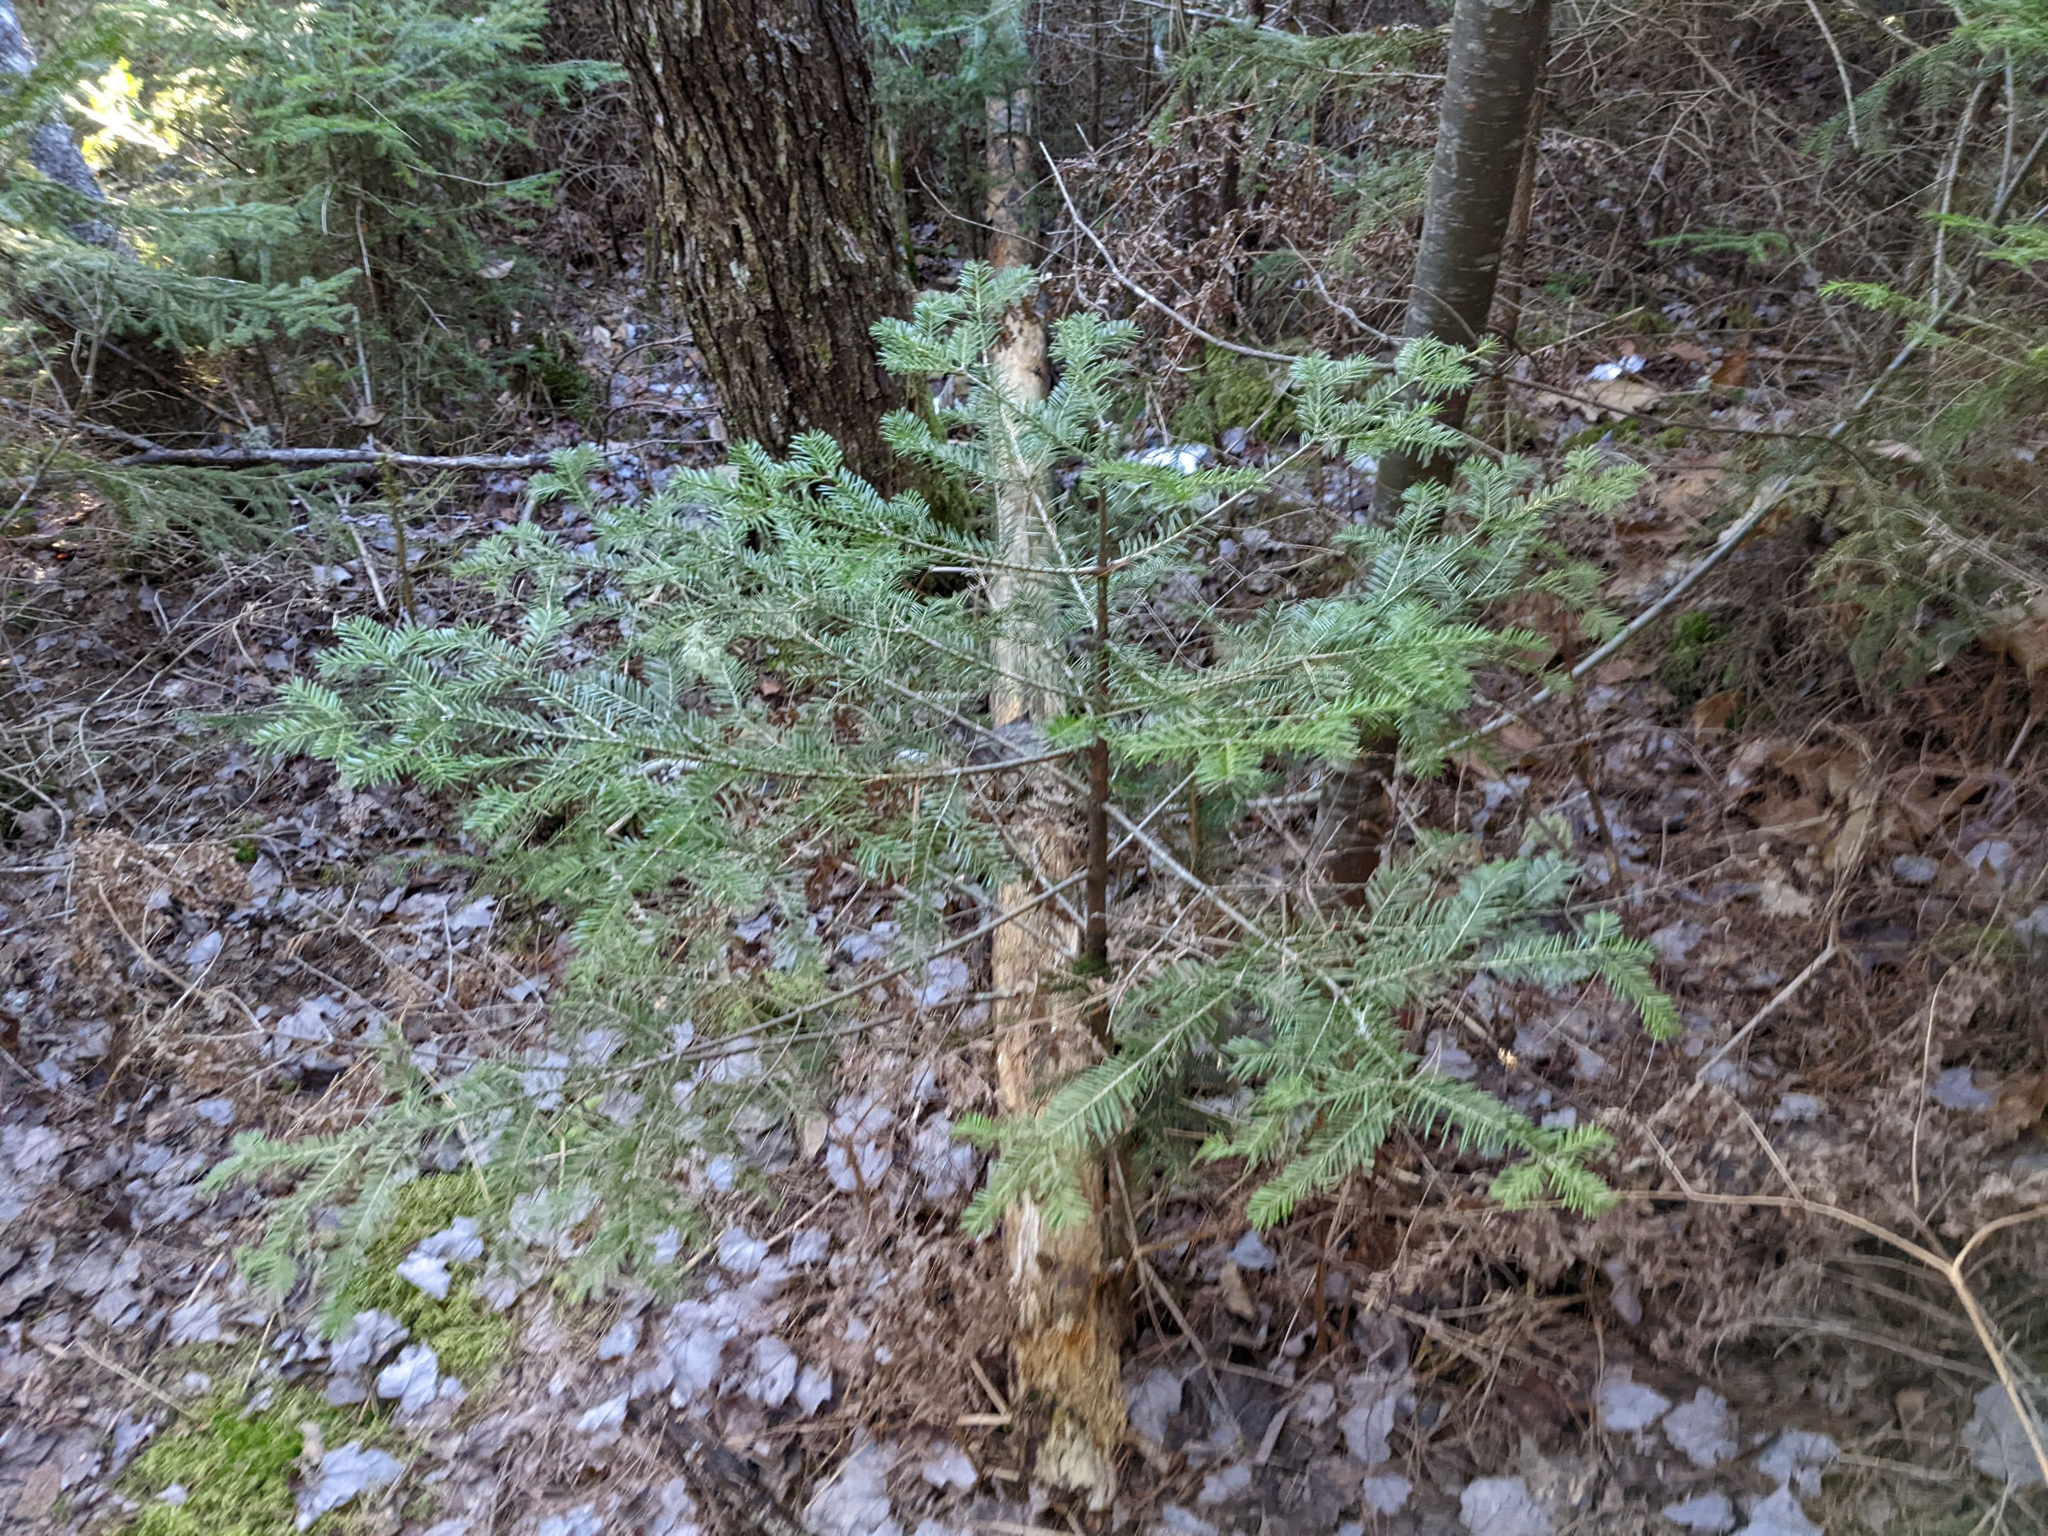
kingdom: Plantae
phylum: Tracheophyta
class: Pinopsida
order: Pinales
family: Pinaceae
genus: Abies
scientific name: Abies balsamea
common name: Balsam fir
